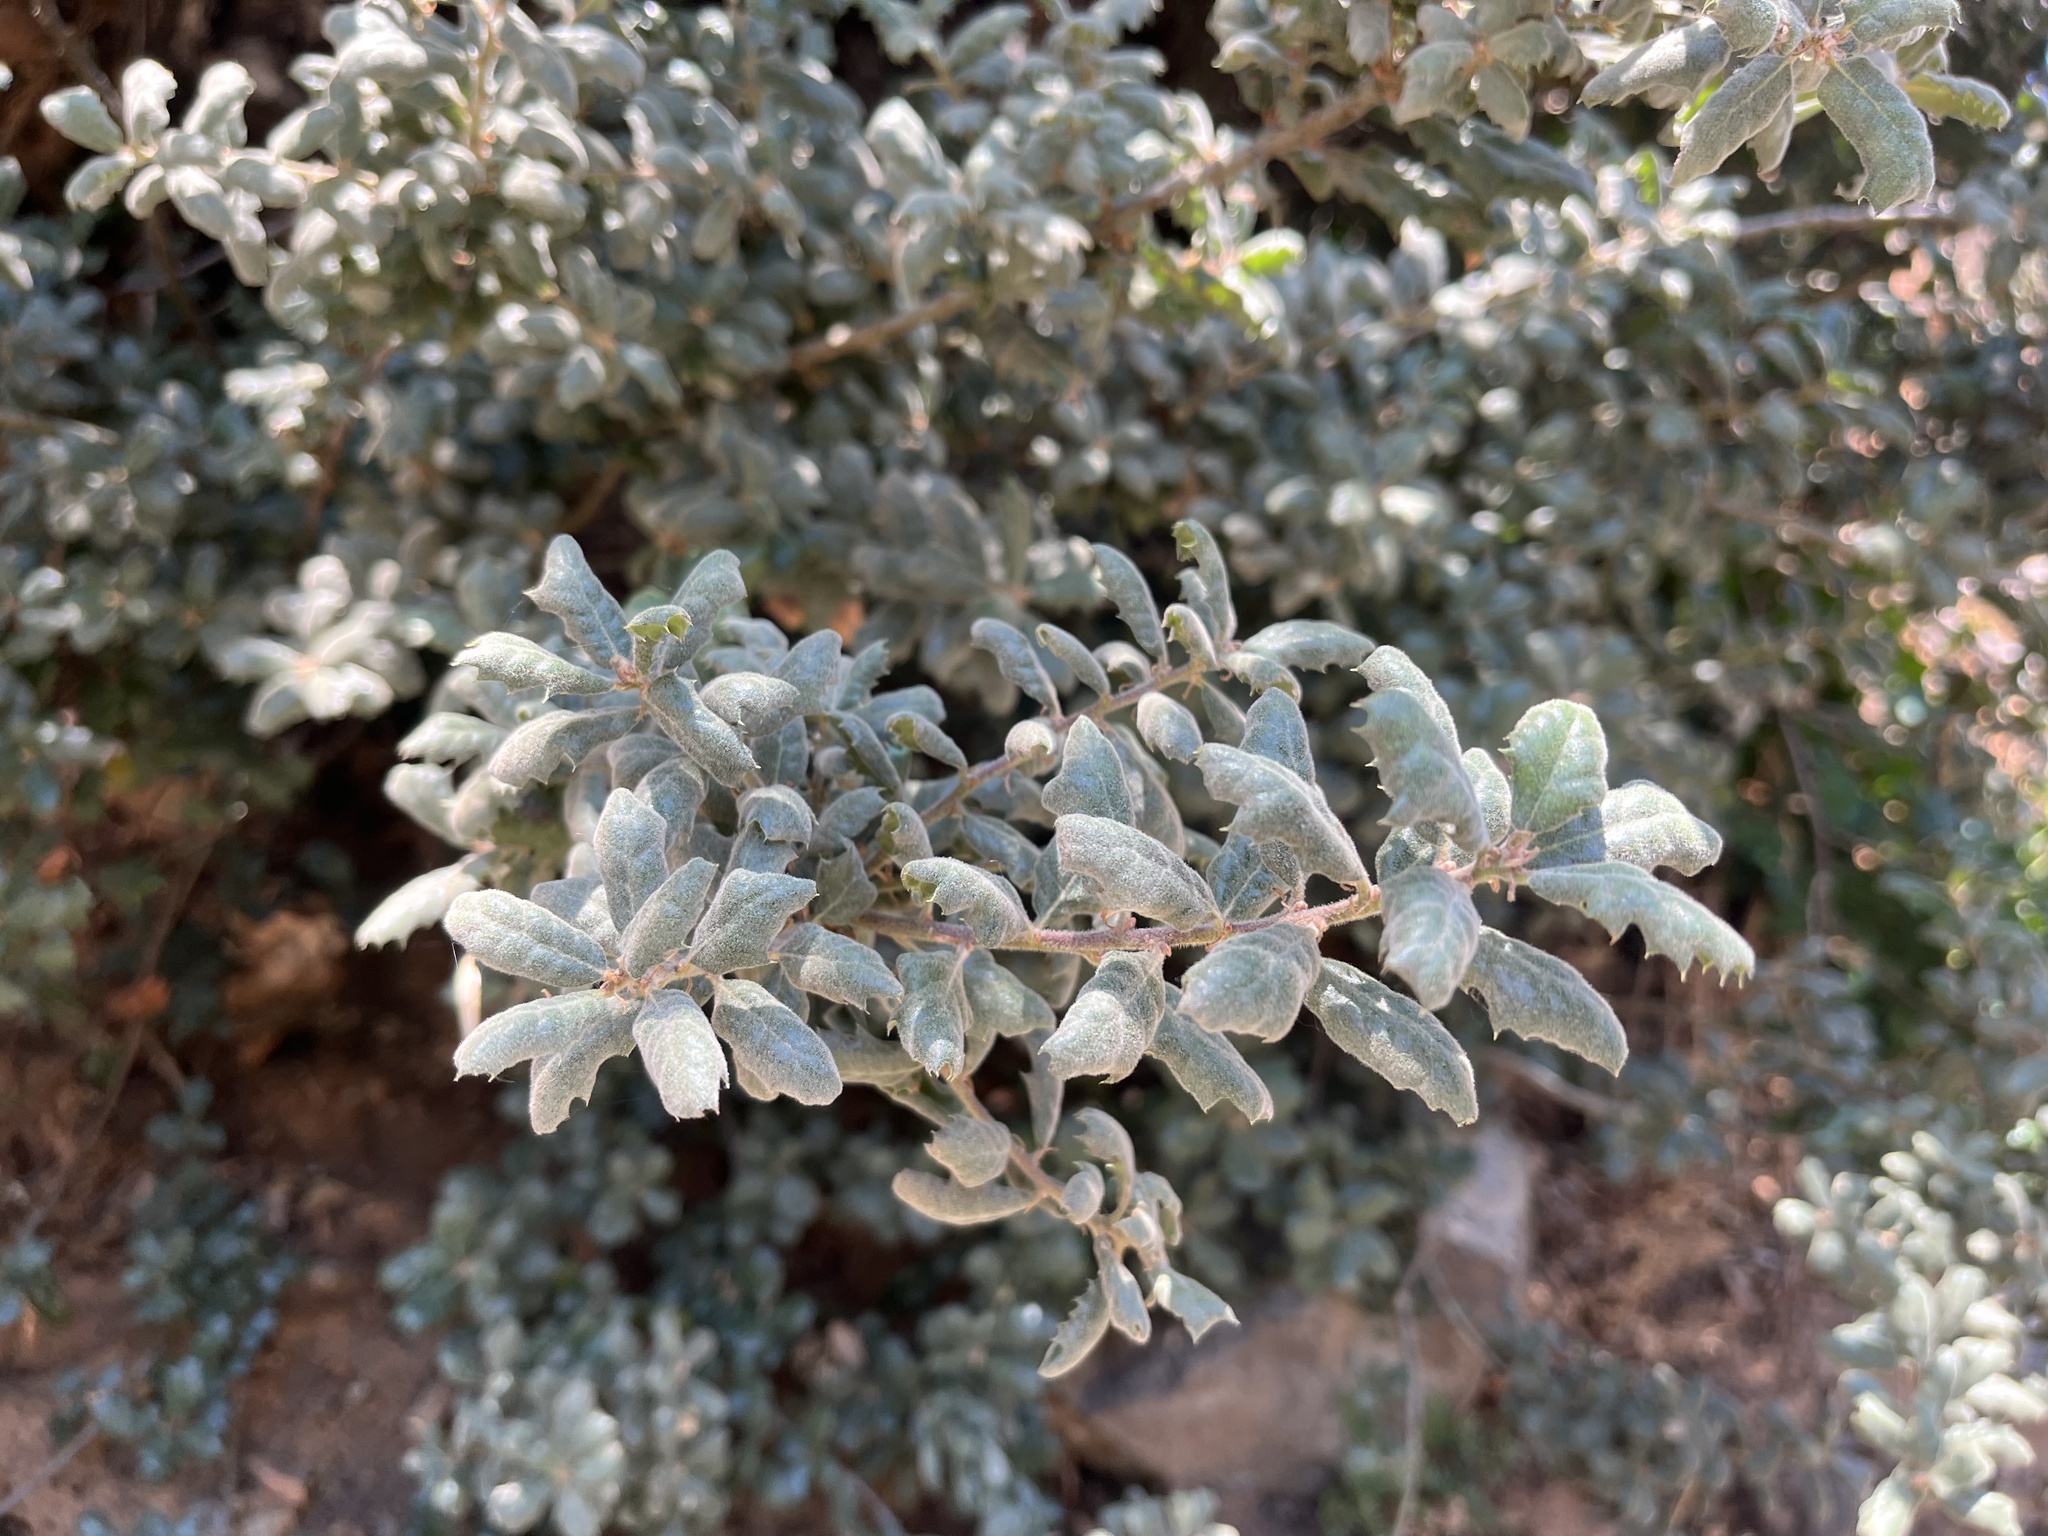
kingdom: Plantae
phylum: Tracheophyta
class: Magnoliopsida
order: Fagales
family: Fagaceae
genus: Quercus
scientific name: Quercus durata
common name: Leather oak
